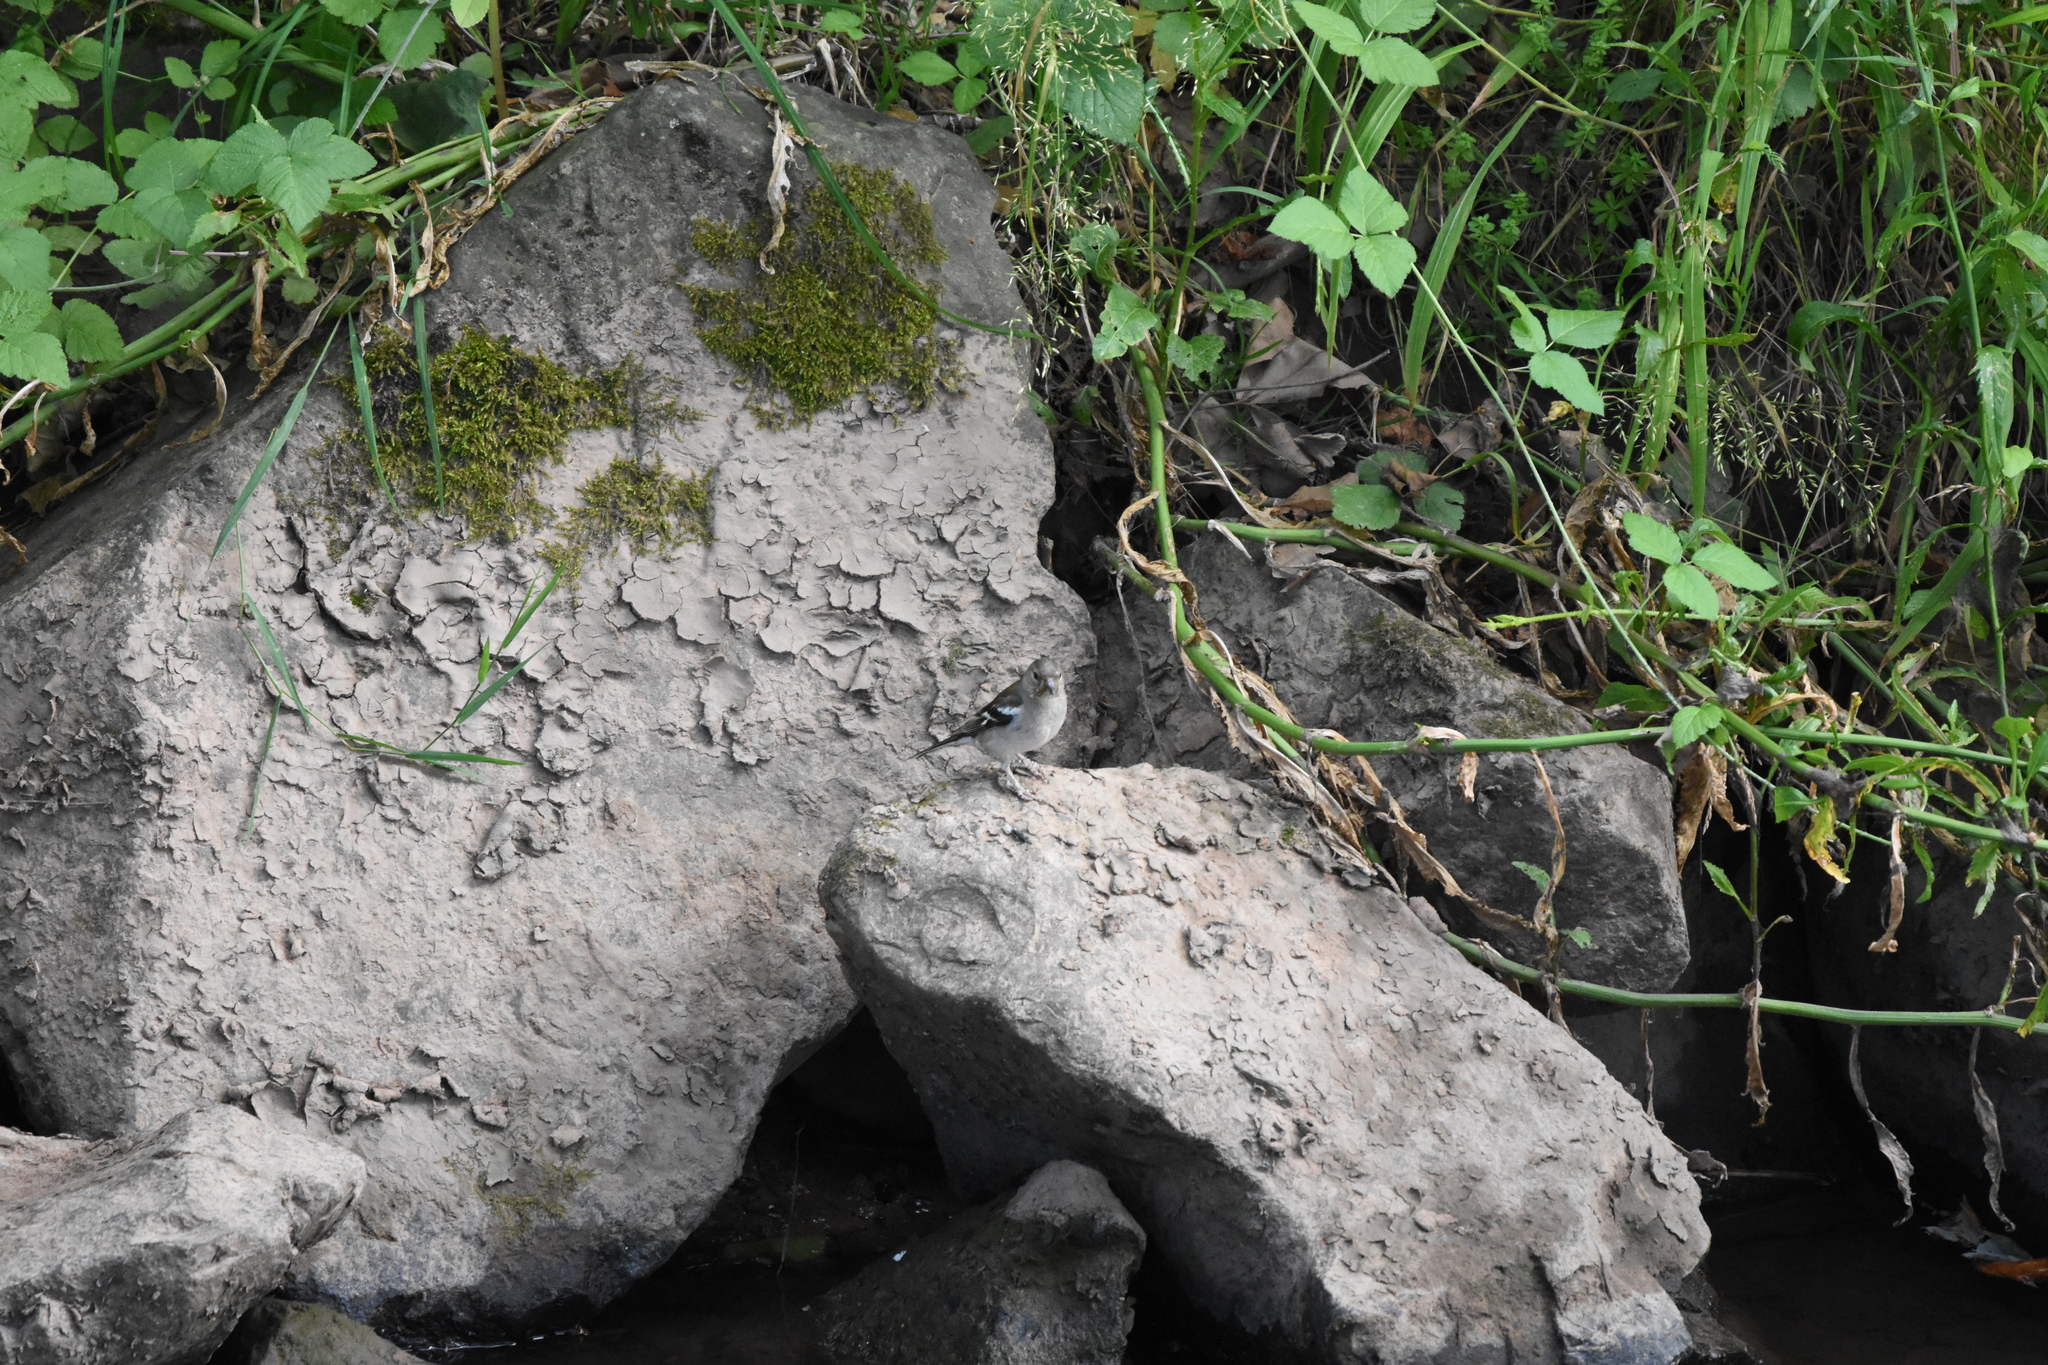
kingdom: Animalia
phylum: Chordata
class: Aves
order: Passeriformes
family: Fringillidae
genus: Fringilla
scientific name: Fringilla coelebs
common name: Common chaffinch
